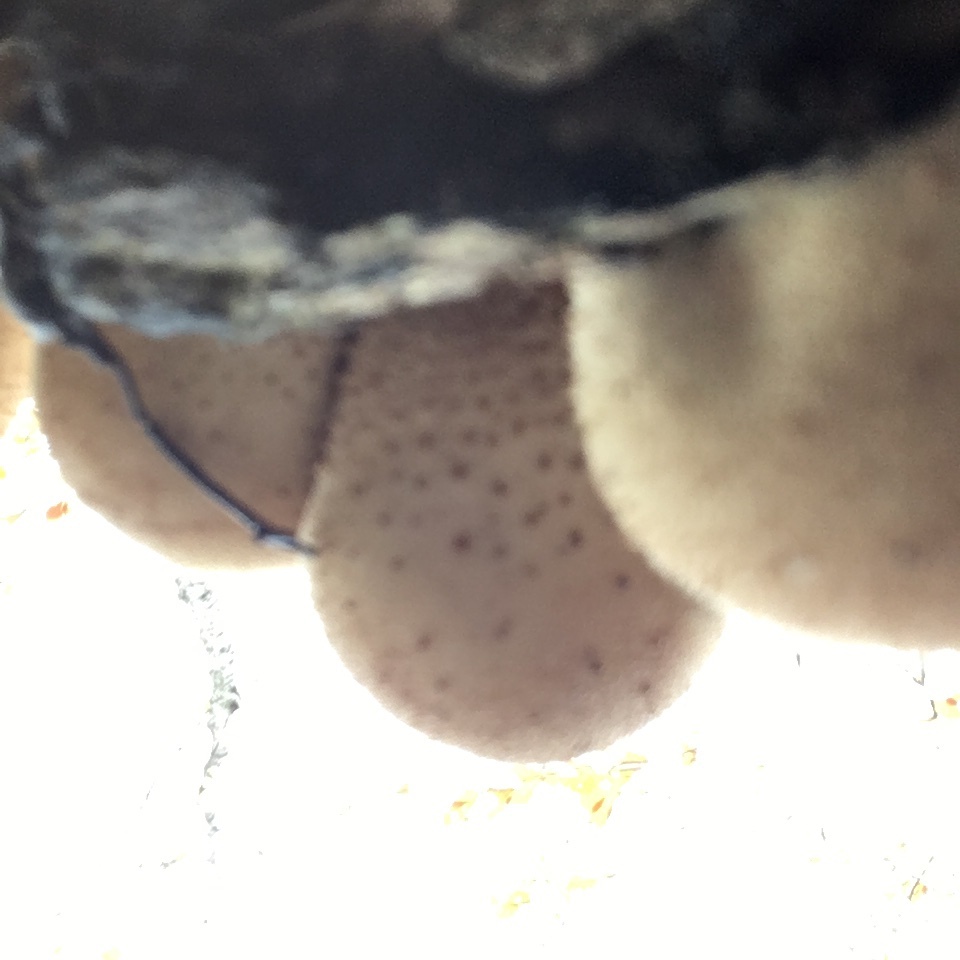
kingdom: Fungi
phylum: Basidiomycota
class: Agaricomycetes
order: Agaricales
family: Lycoperdaceae
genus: Apioperdon
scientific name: Apioperdon pyriforme
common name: Pear-shaped puffball
